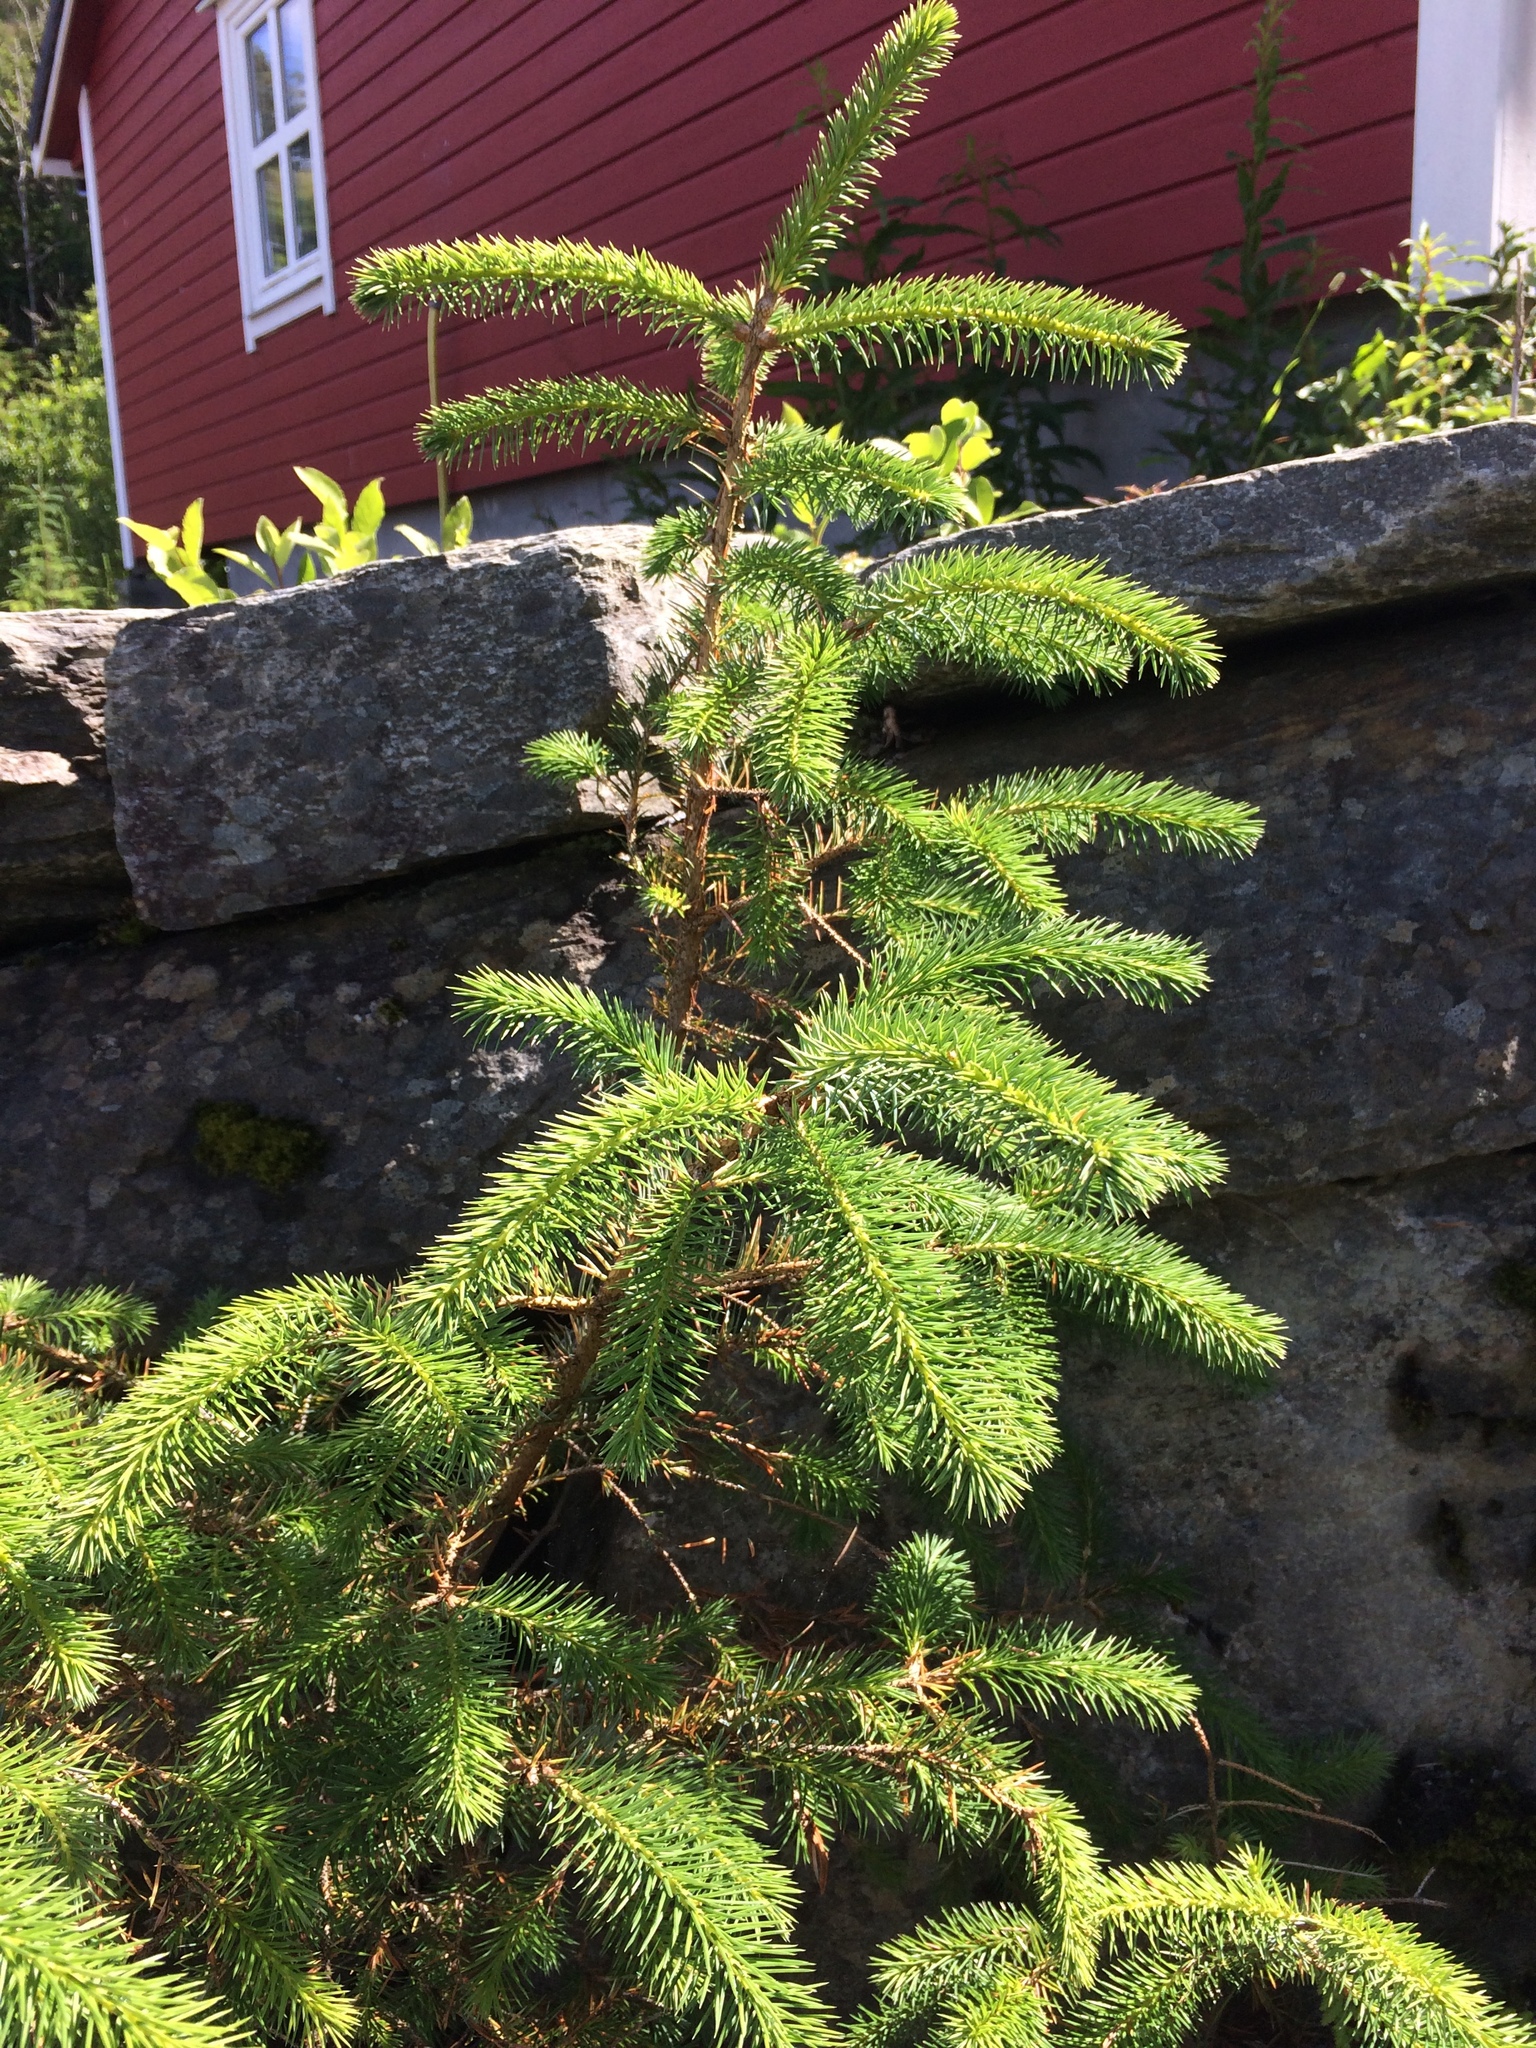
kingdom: Plantae
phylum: Tracheophyta
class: Pinopsida
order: Pinales
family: Pinaceae
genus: Picea
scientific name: Picea abies
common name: Norway spruce
